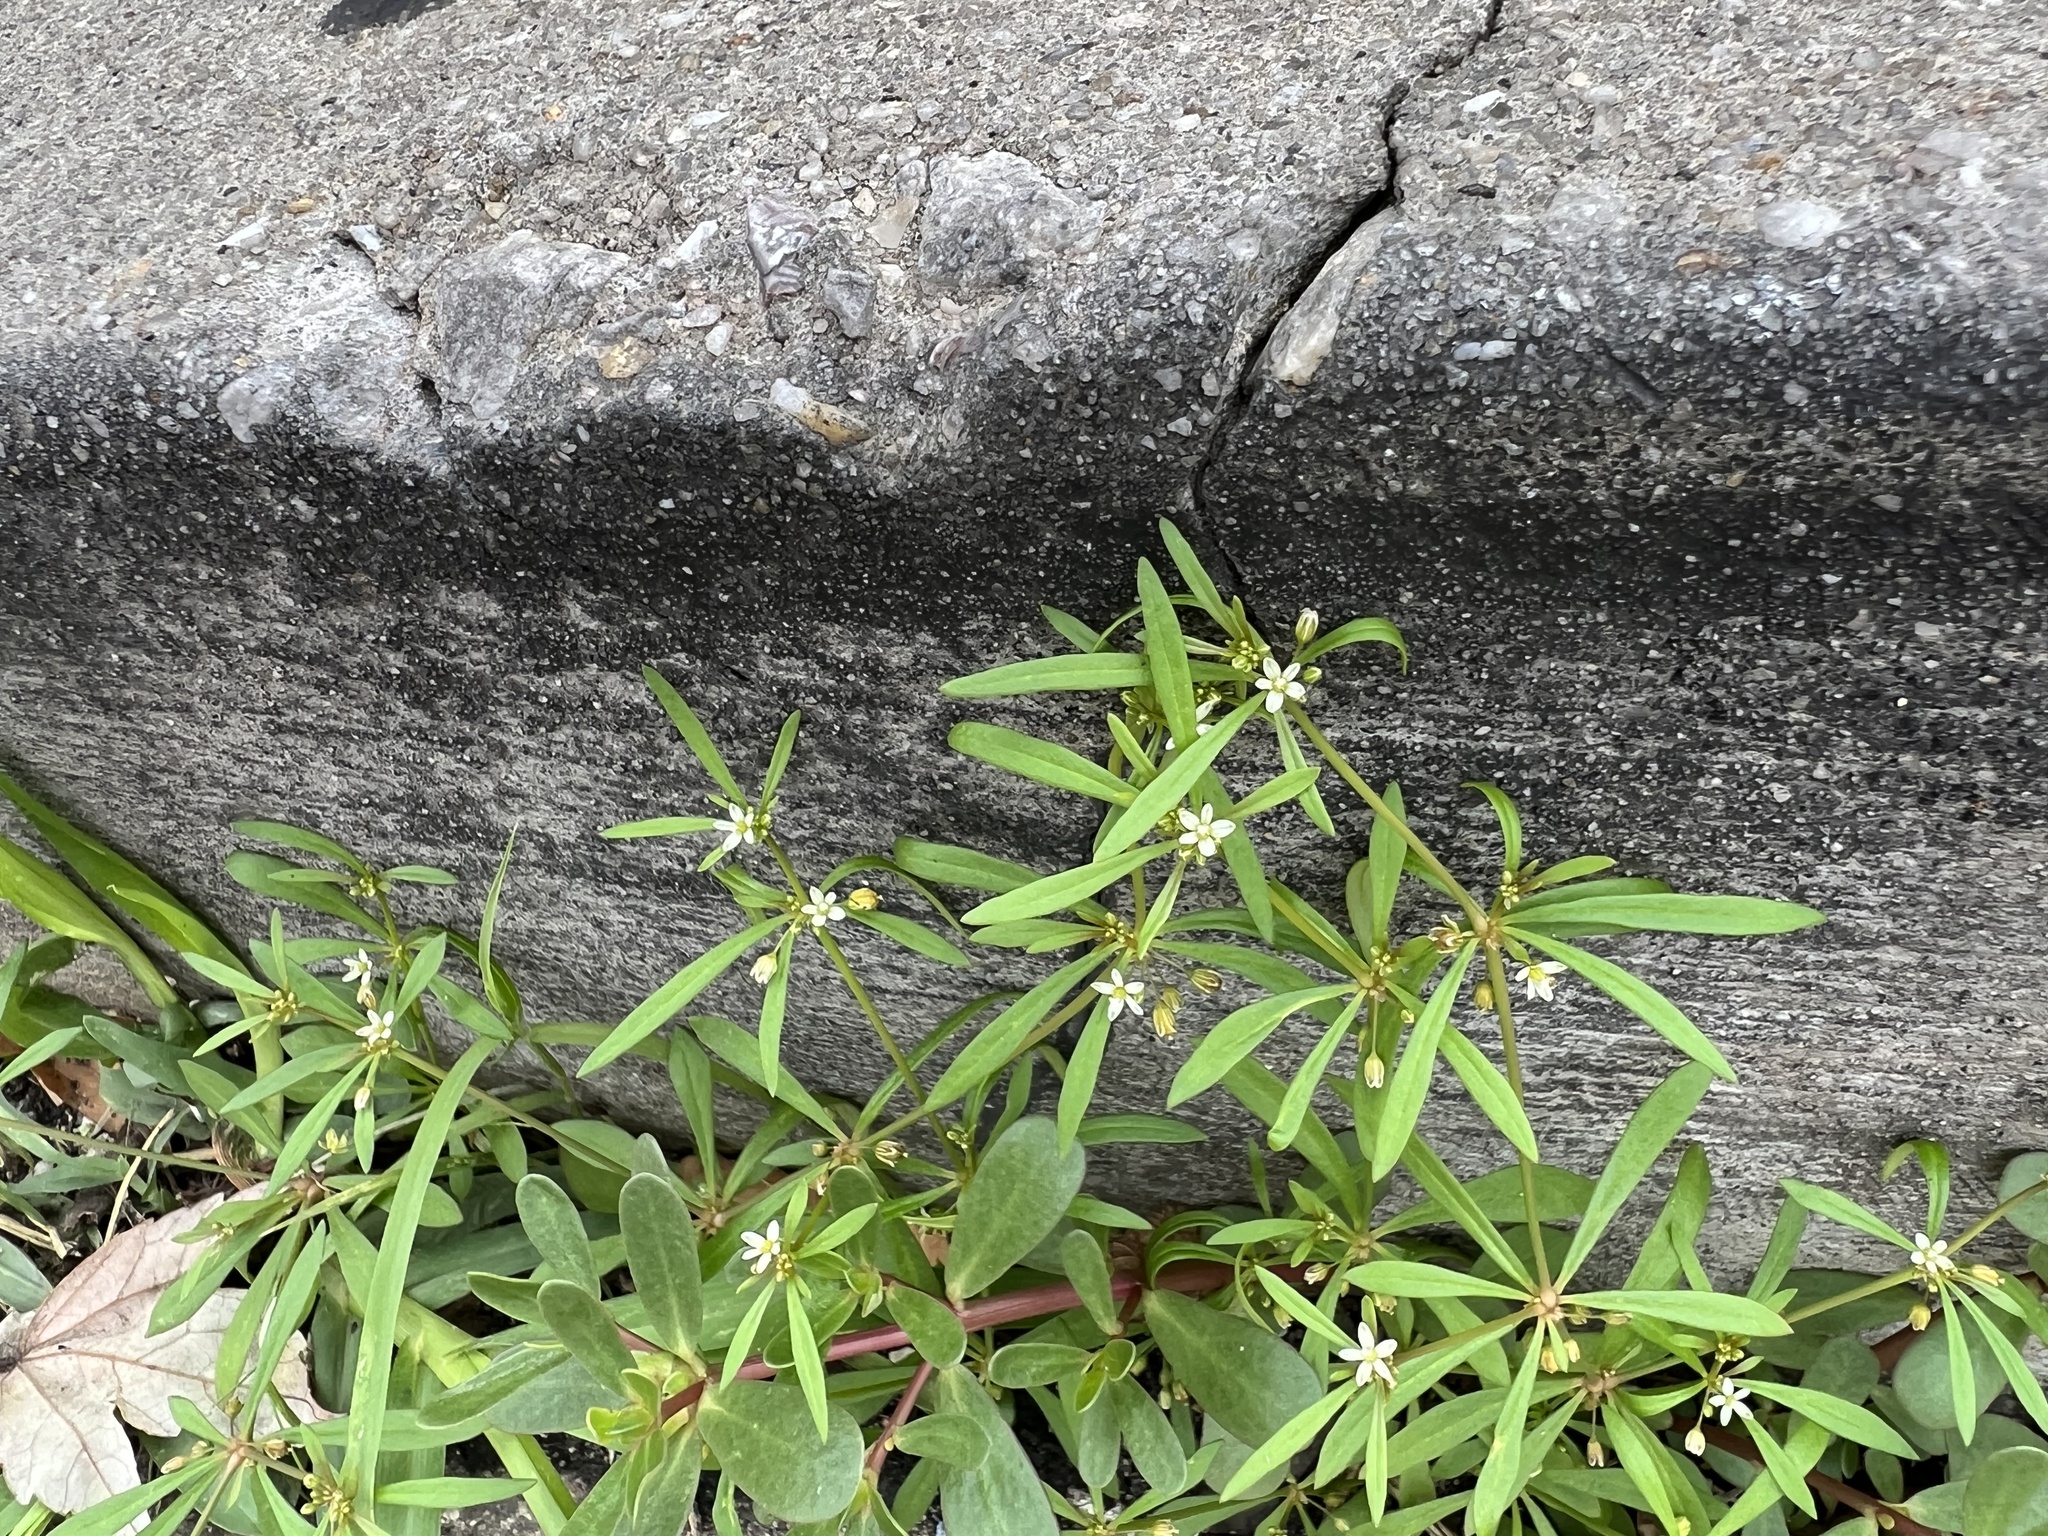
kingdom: Plantae
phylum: Tracheophyta
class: Magnoliopsida
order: Caryophyllales
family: Molluginaceae
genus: Mollugo
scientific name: Mollugo verticillata
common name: Green carpetweed
